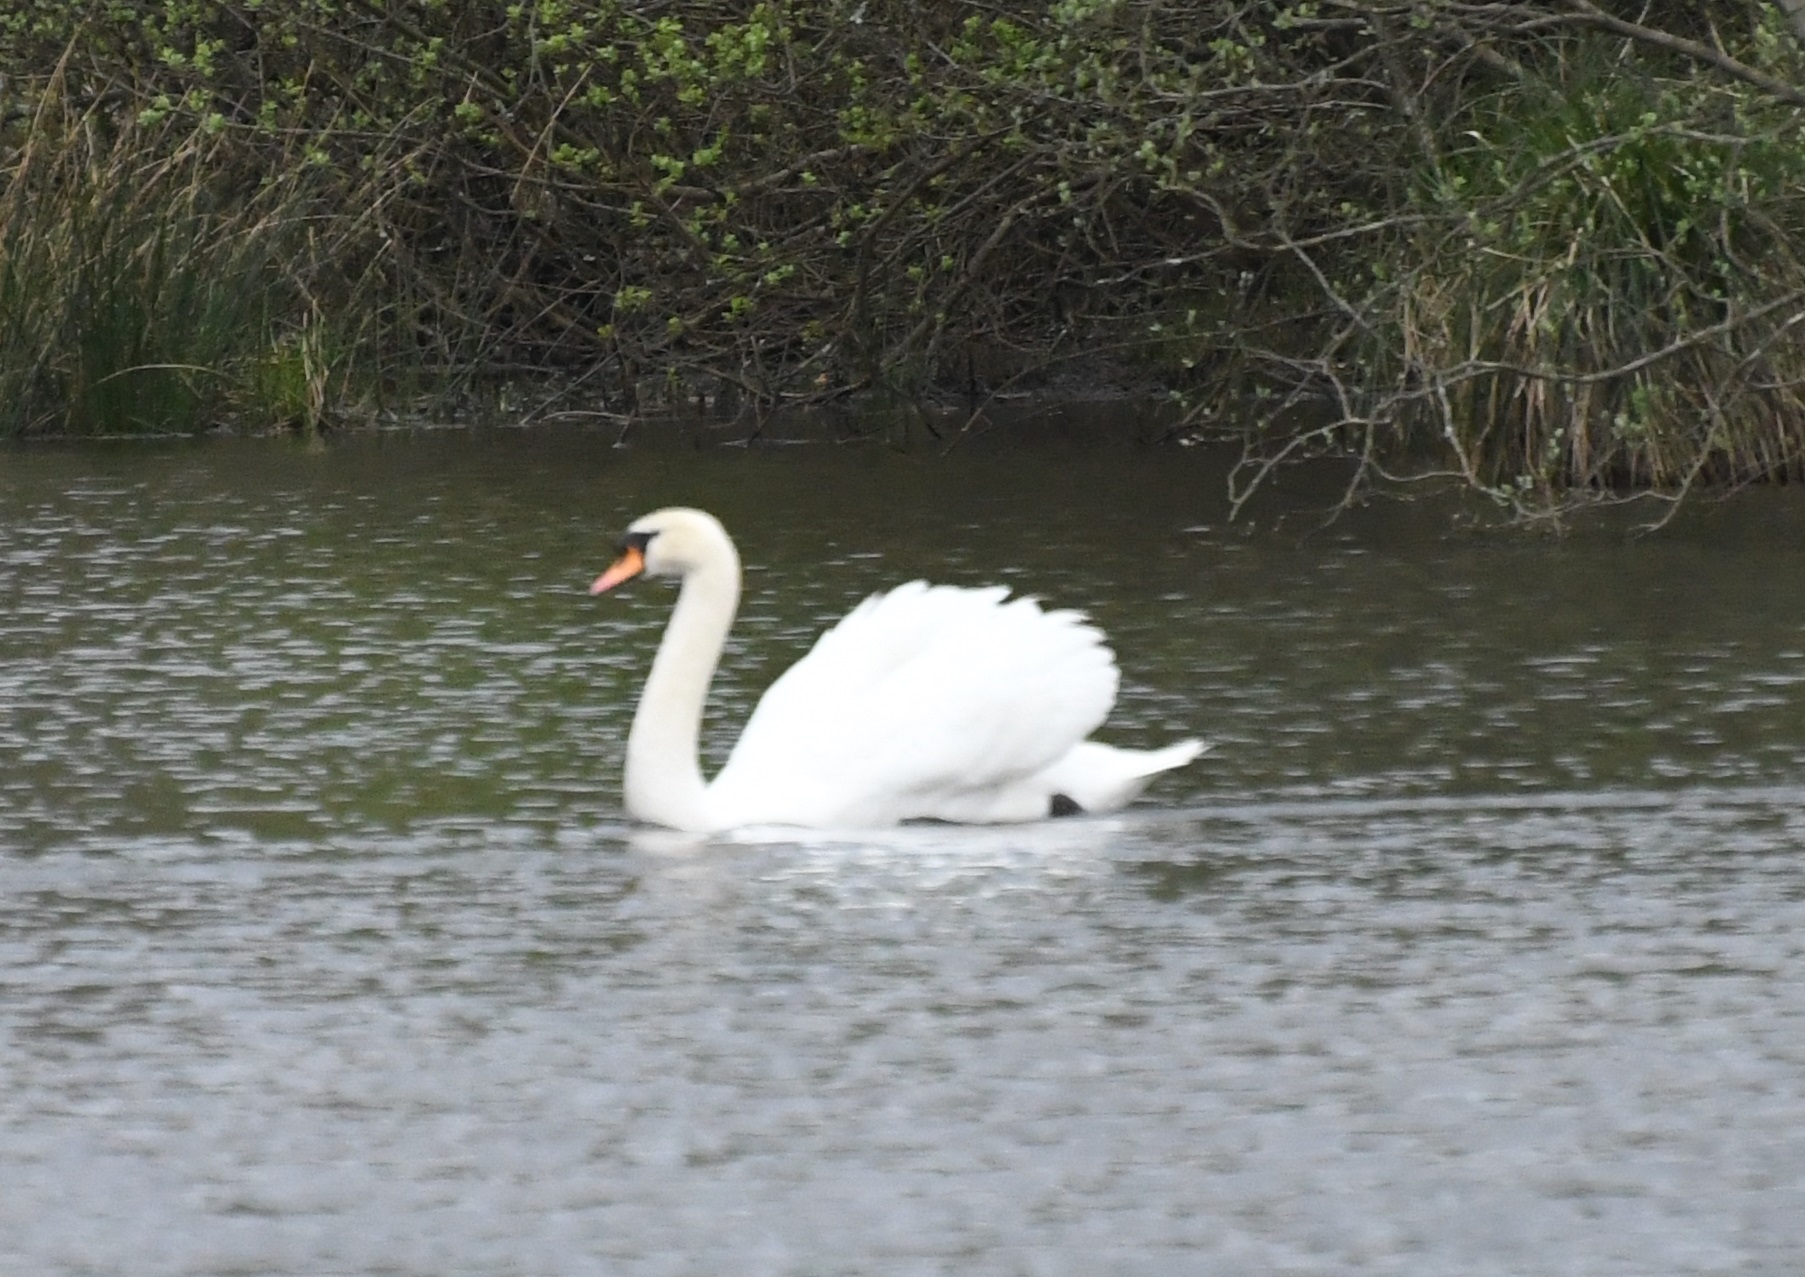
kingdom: Animalia
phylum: Chordata
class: Aves
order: Anseriformes
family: Anatidae
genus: Cygnus
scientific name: Cygnus olor
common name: Mute swan
